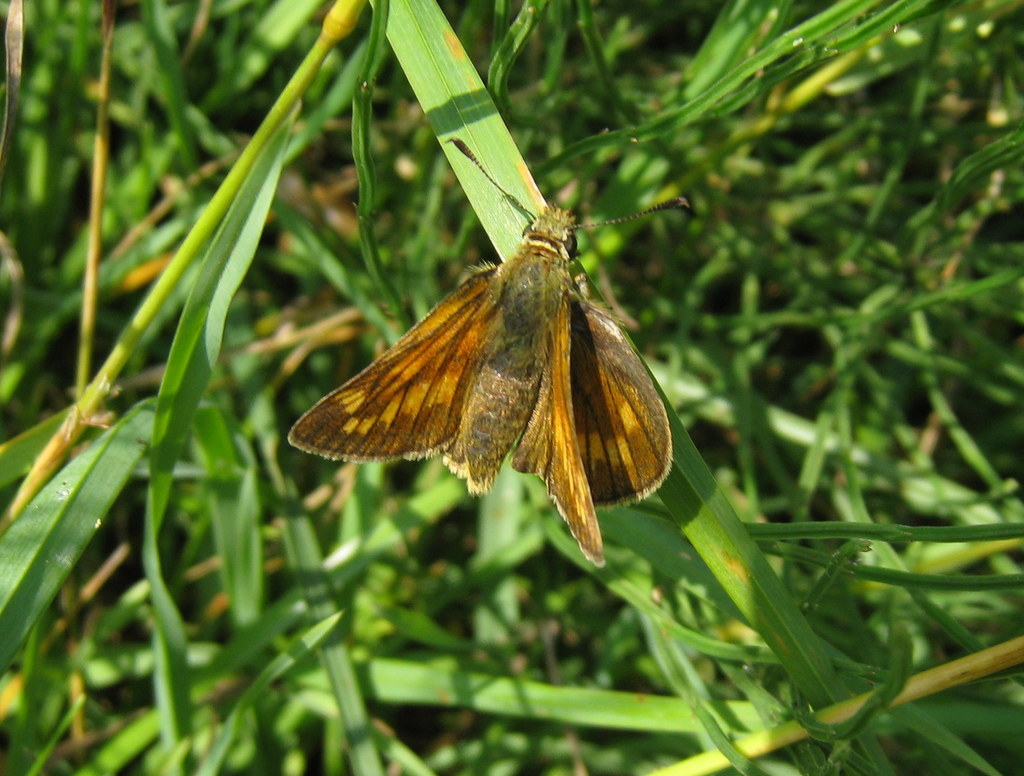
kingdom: Animalia
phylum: Arthropoda
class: Insecta
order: Lepidoptera
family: Hesperiidae
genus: Ochlodes
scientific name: Ochlodes venata
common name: Large skipper
